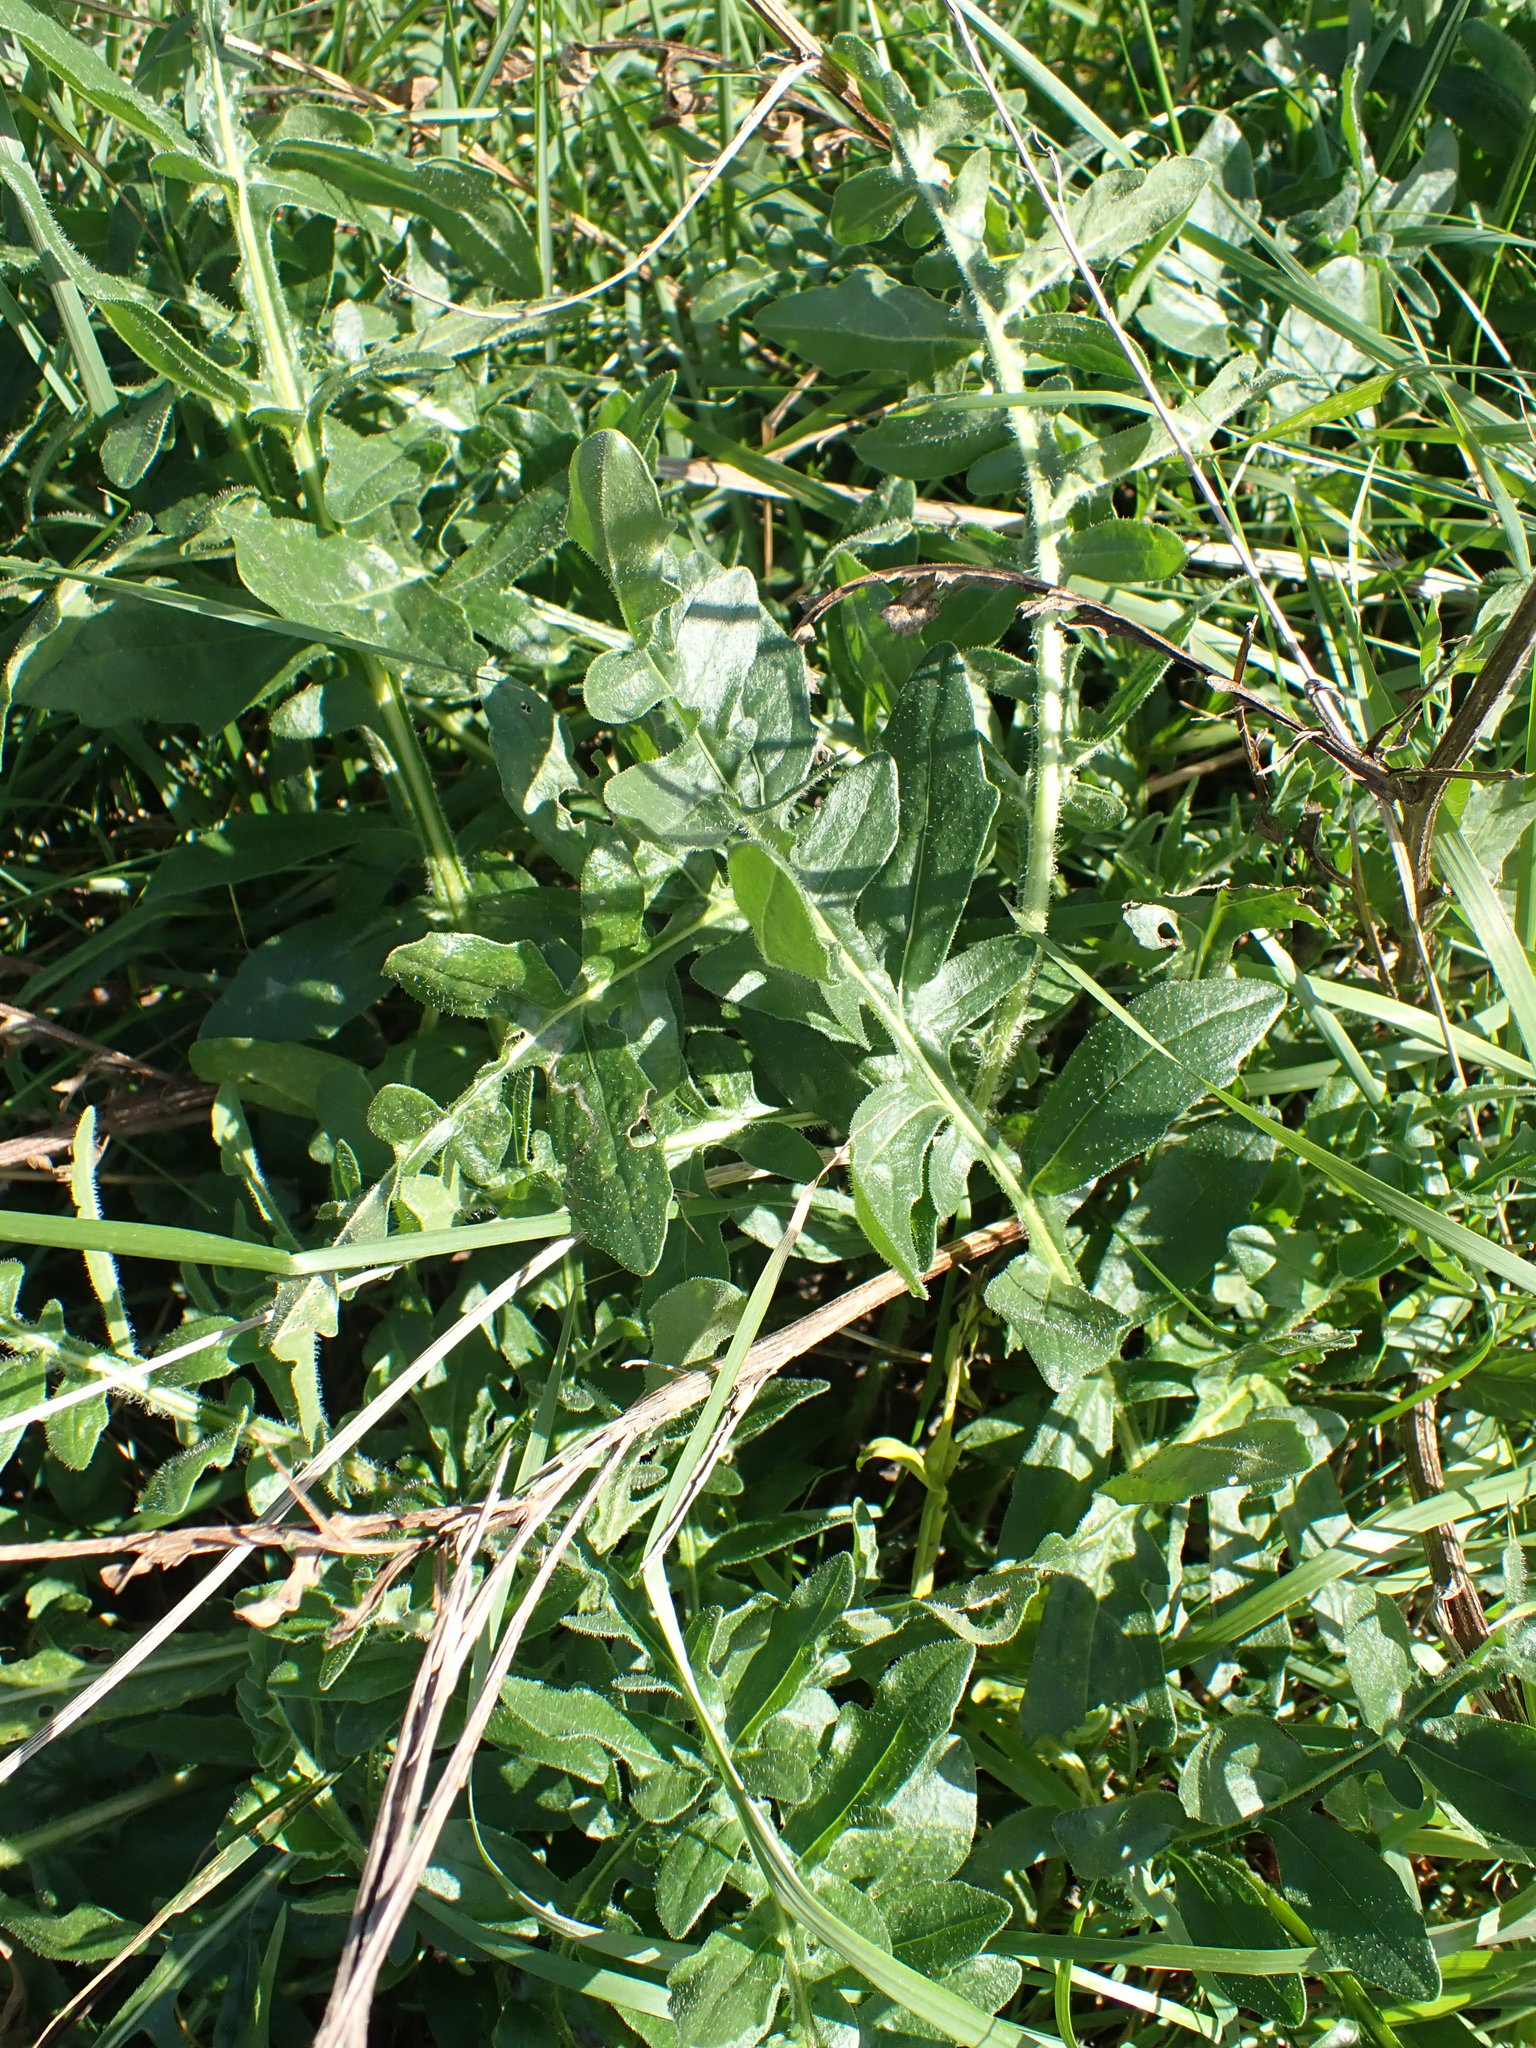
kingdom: Plantae
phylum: Tracheophyta
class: Magnoliopsida
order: Asterales
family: Asteraceae
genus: Centaurea
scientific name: Centaurea scabiosa
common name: Greater knapweed
